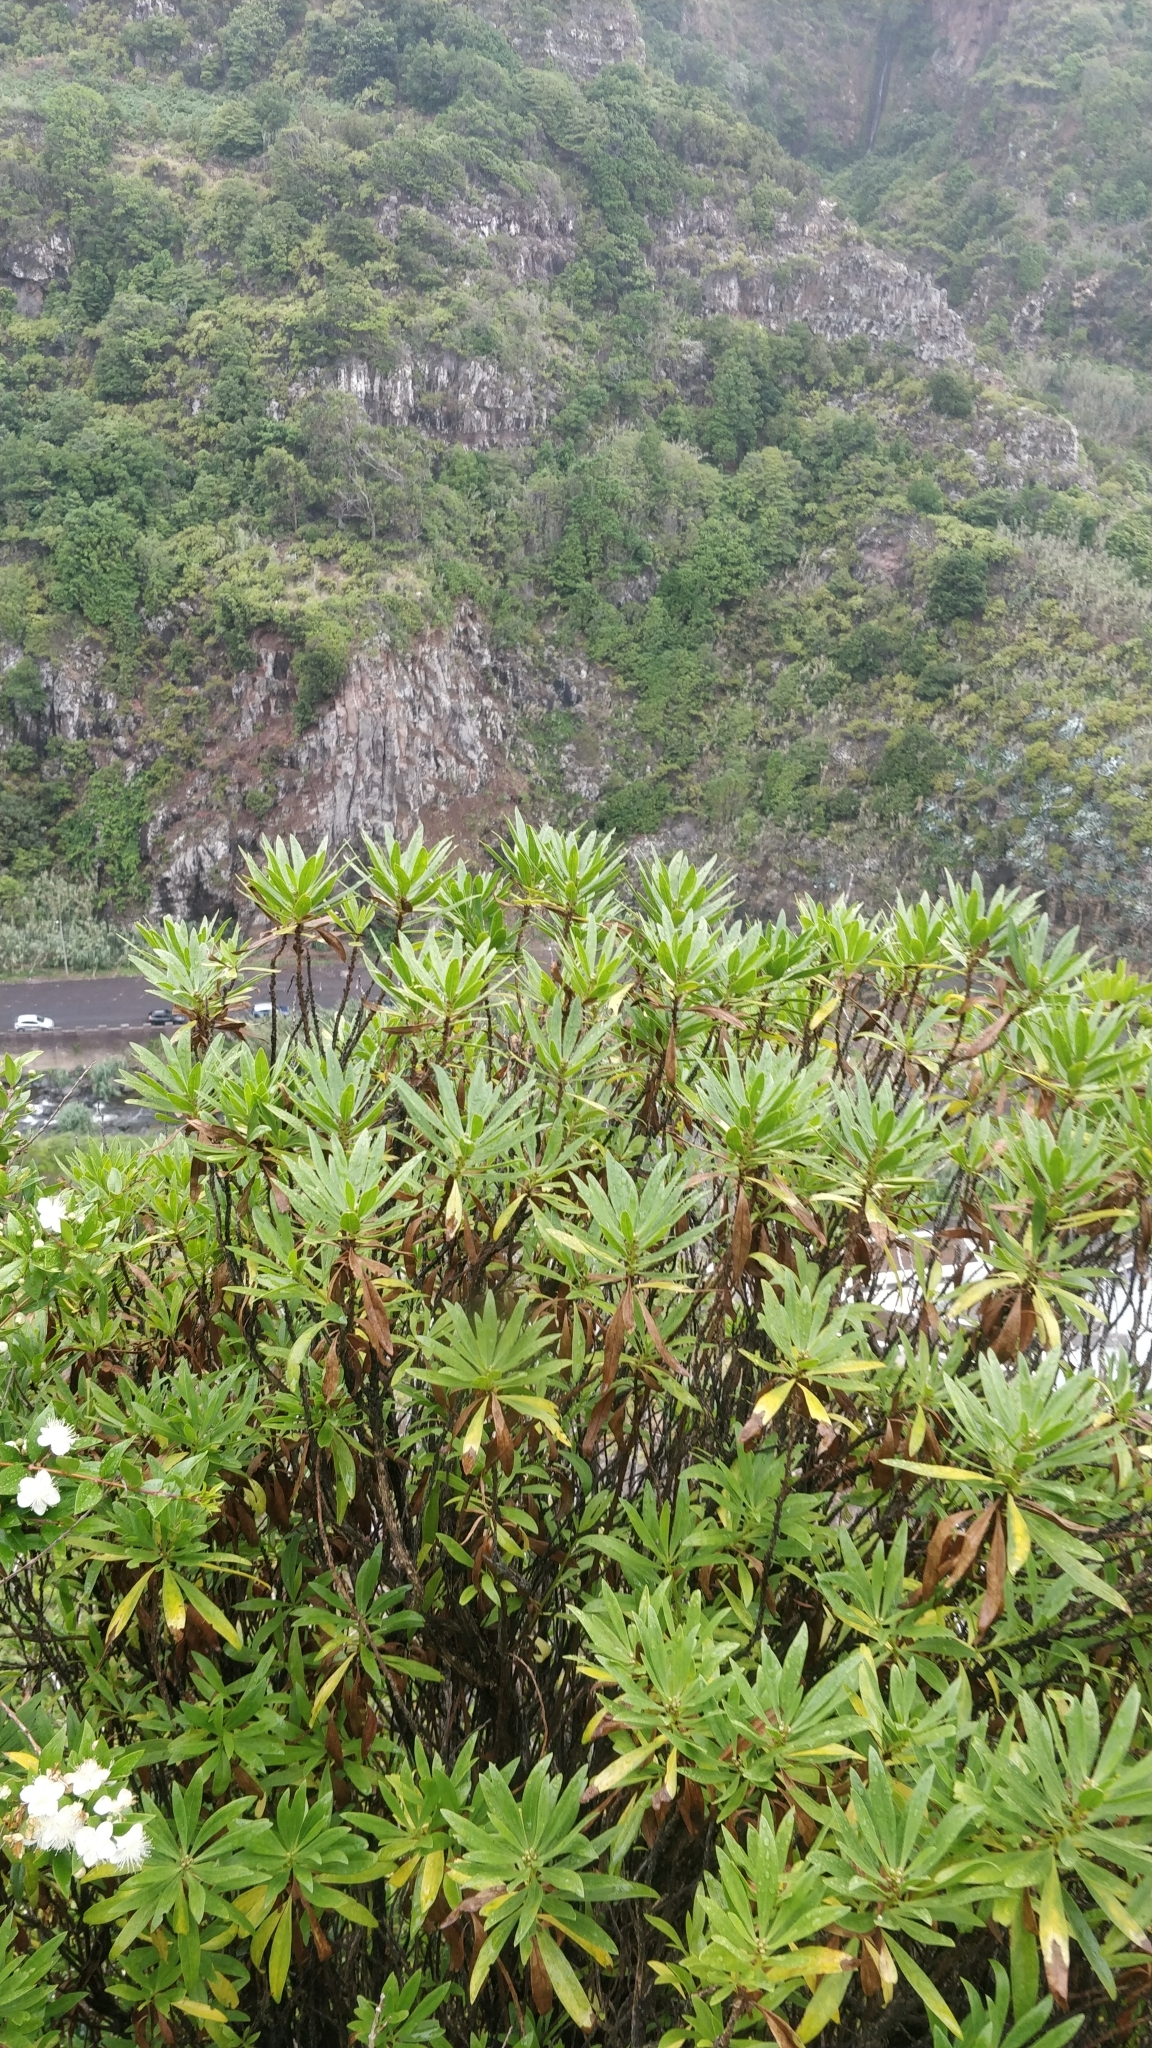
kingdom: Plantae
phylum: Tracheophyta
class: Magnoliopsida
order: Lamiales
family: Plantaginaceae
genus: Globularia
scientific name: Globularia salicina
